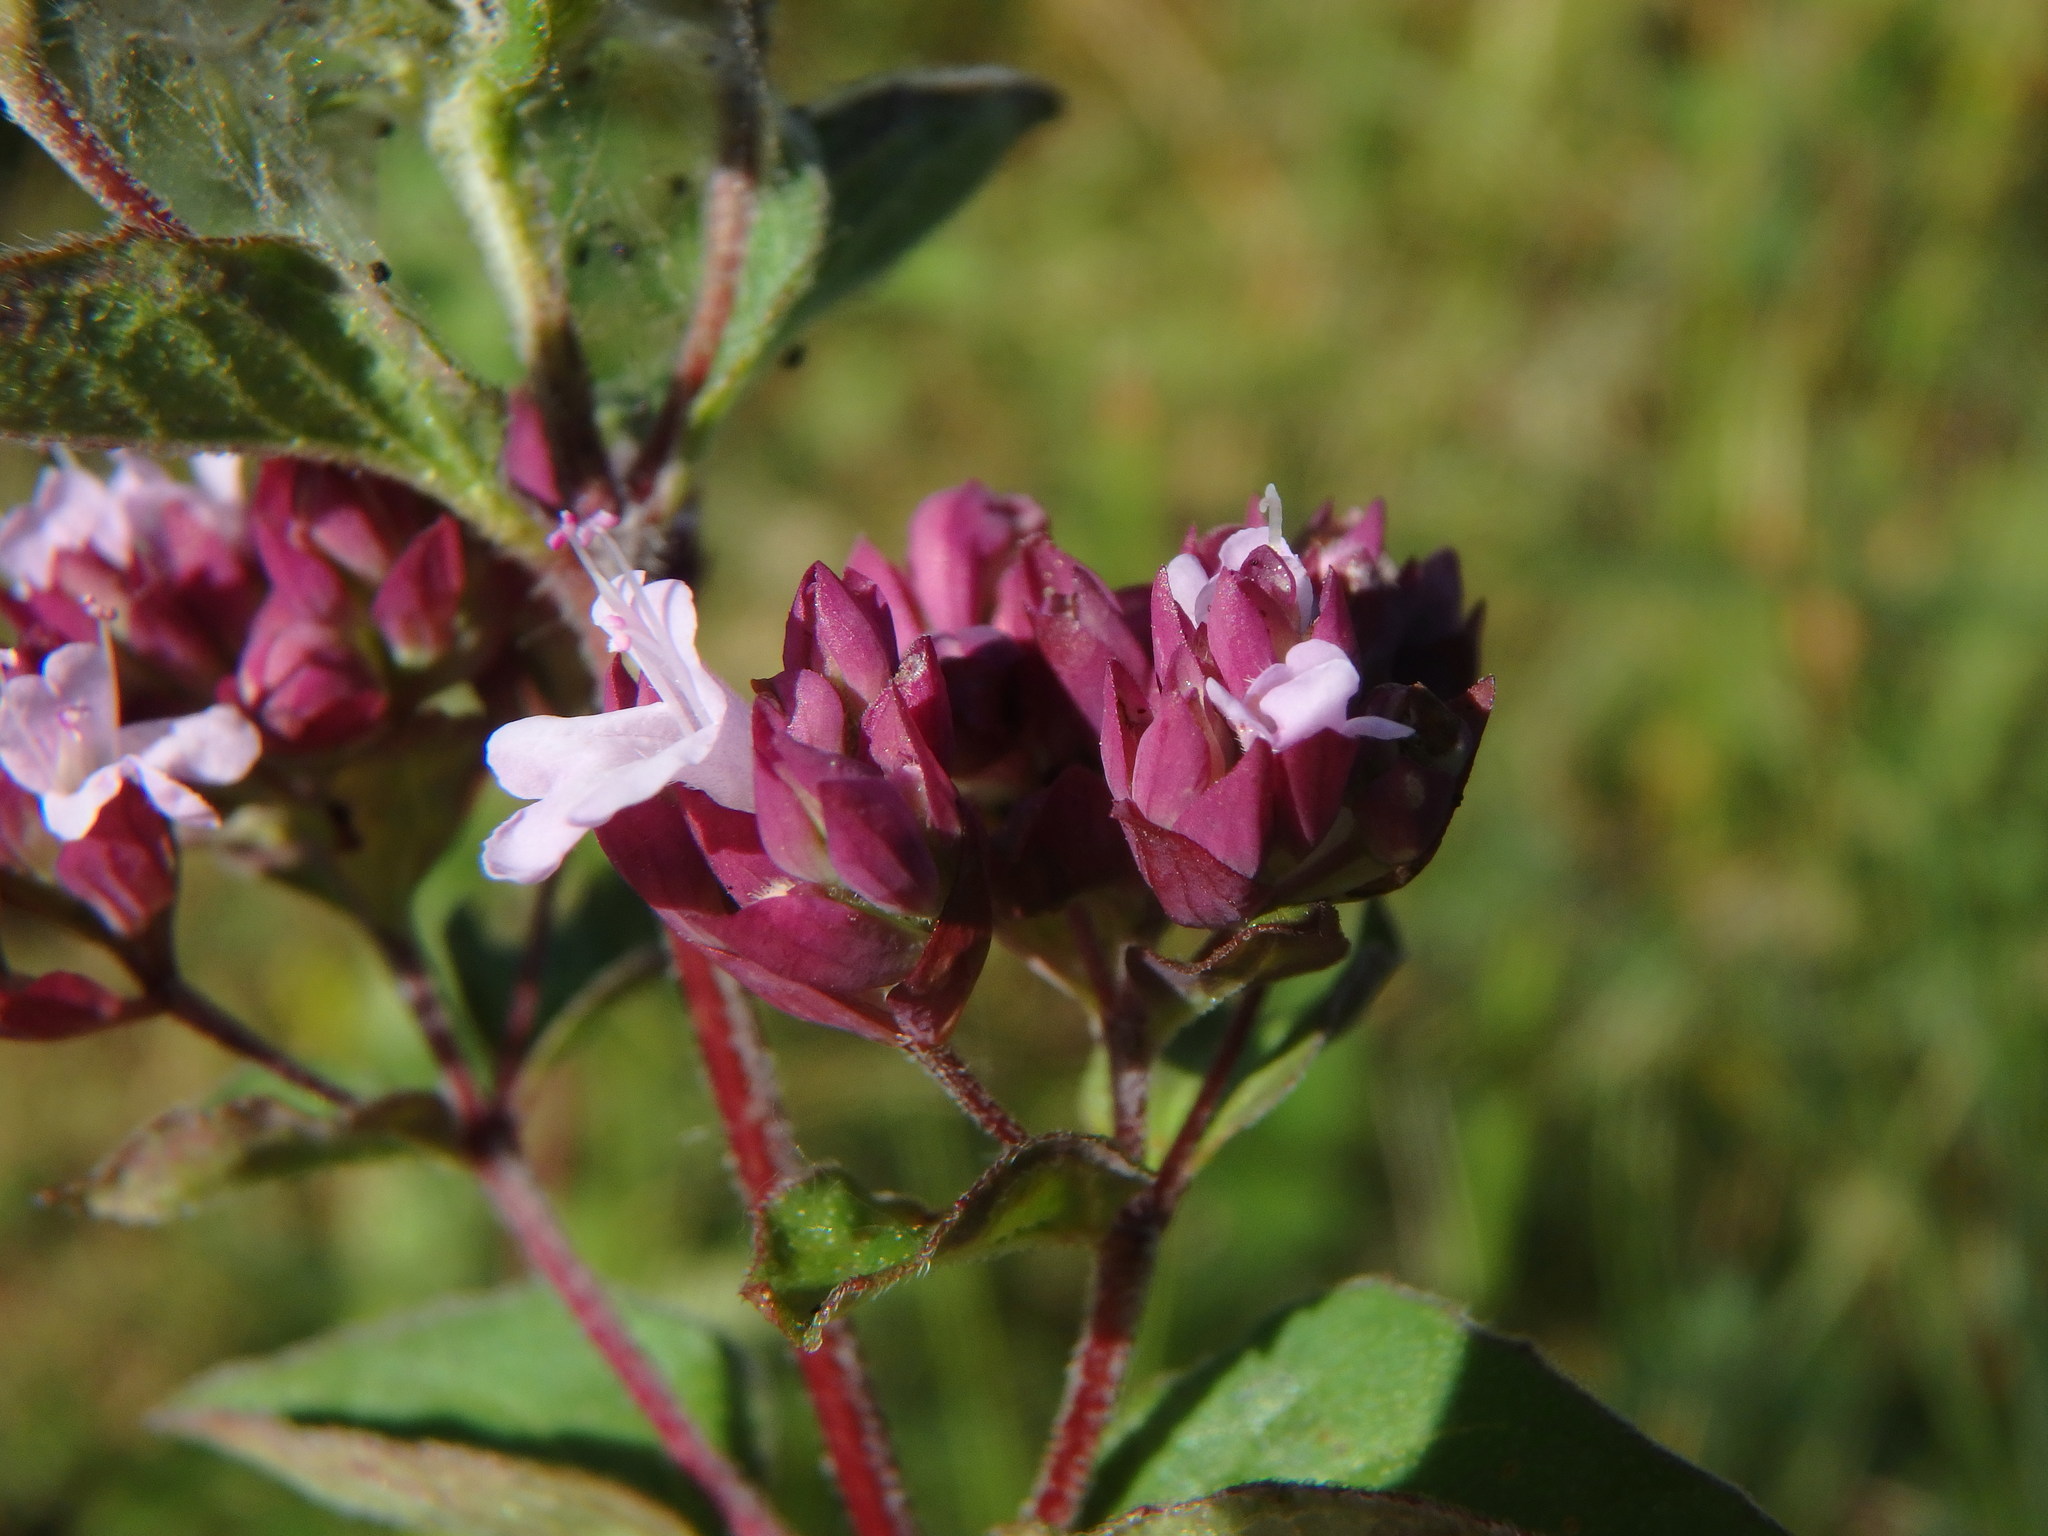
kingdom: Plantae
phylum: Tracheophyta
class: Magnoliopsida
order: Lamiales
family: Lamiaceae
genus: Origanum
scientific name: Origanum vulgare
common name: Wild marjoram
